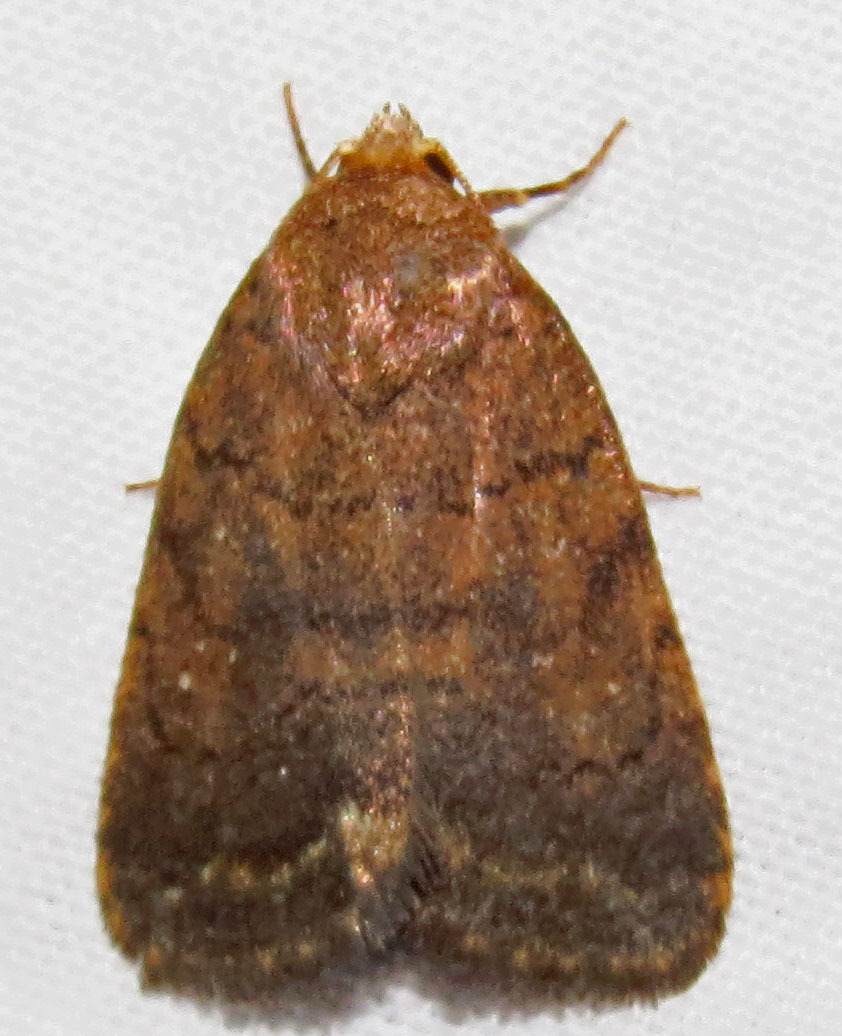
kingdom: Animalia
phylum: Arthropoda
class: Insecta
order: Lepidoptera
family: Noctuidae
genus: Athetis
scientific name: Athetis tarda
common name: Slowpoke moth
